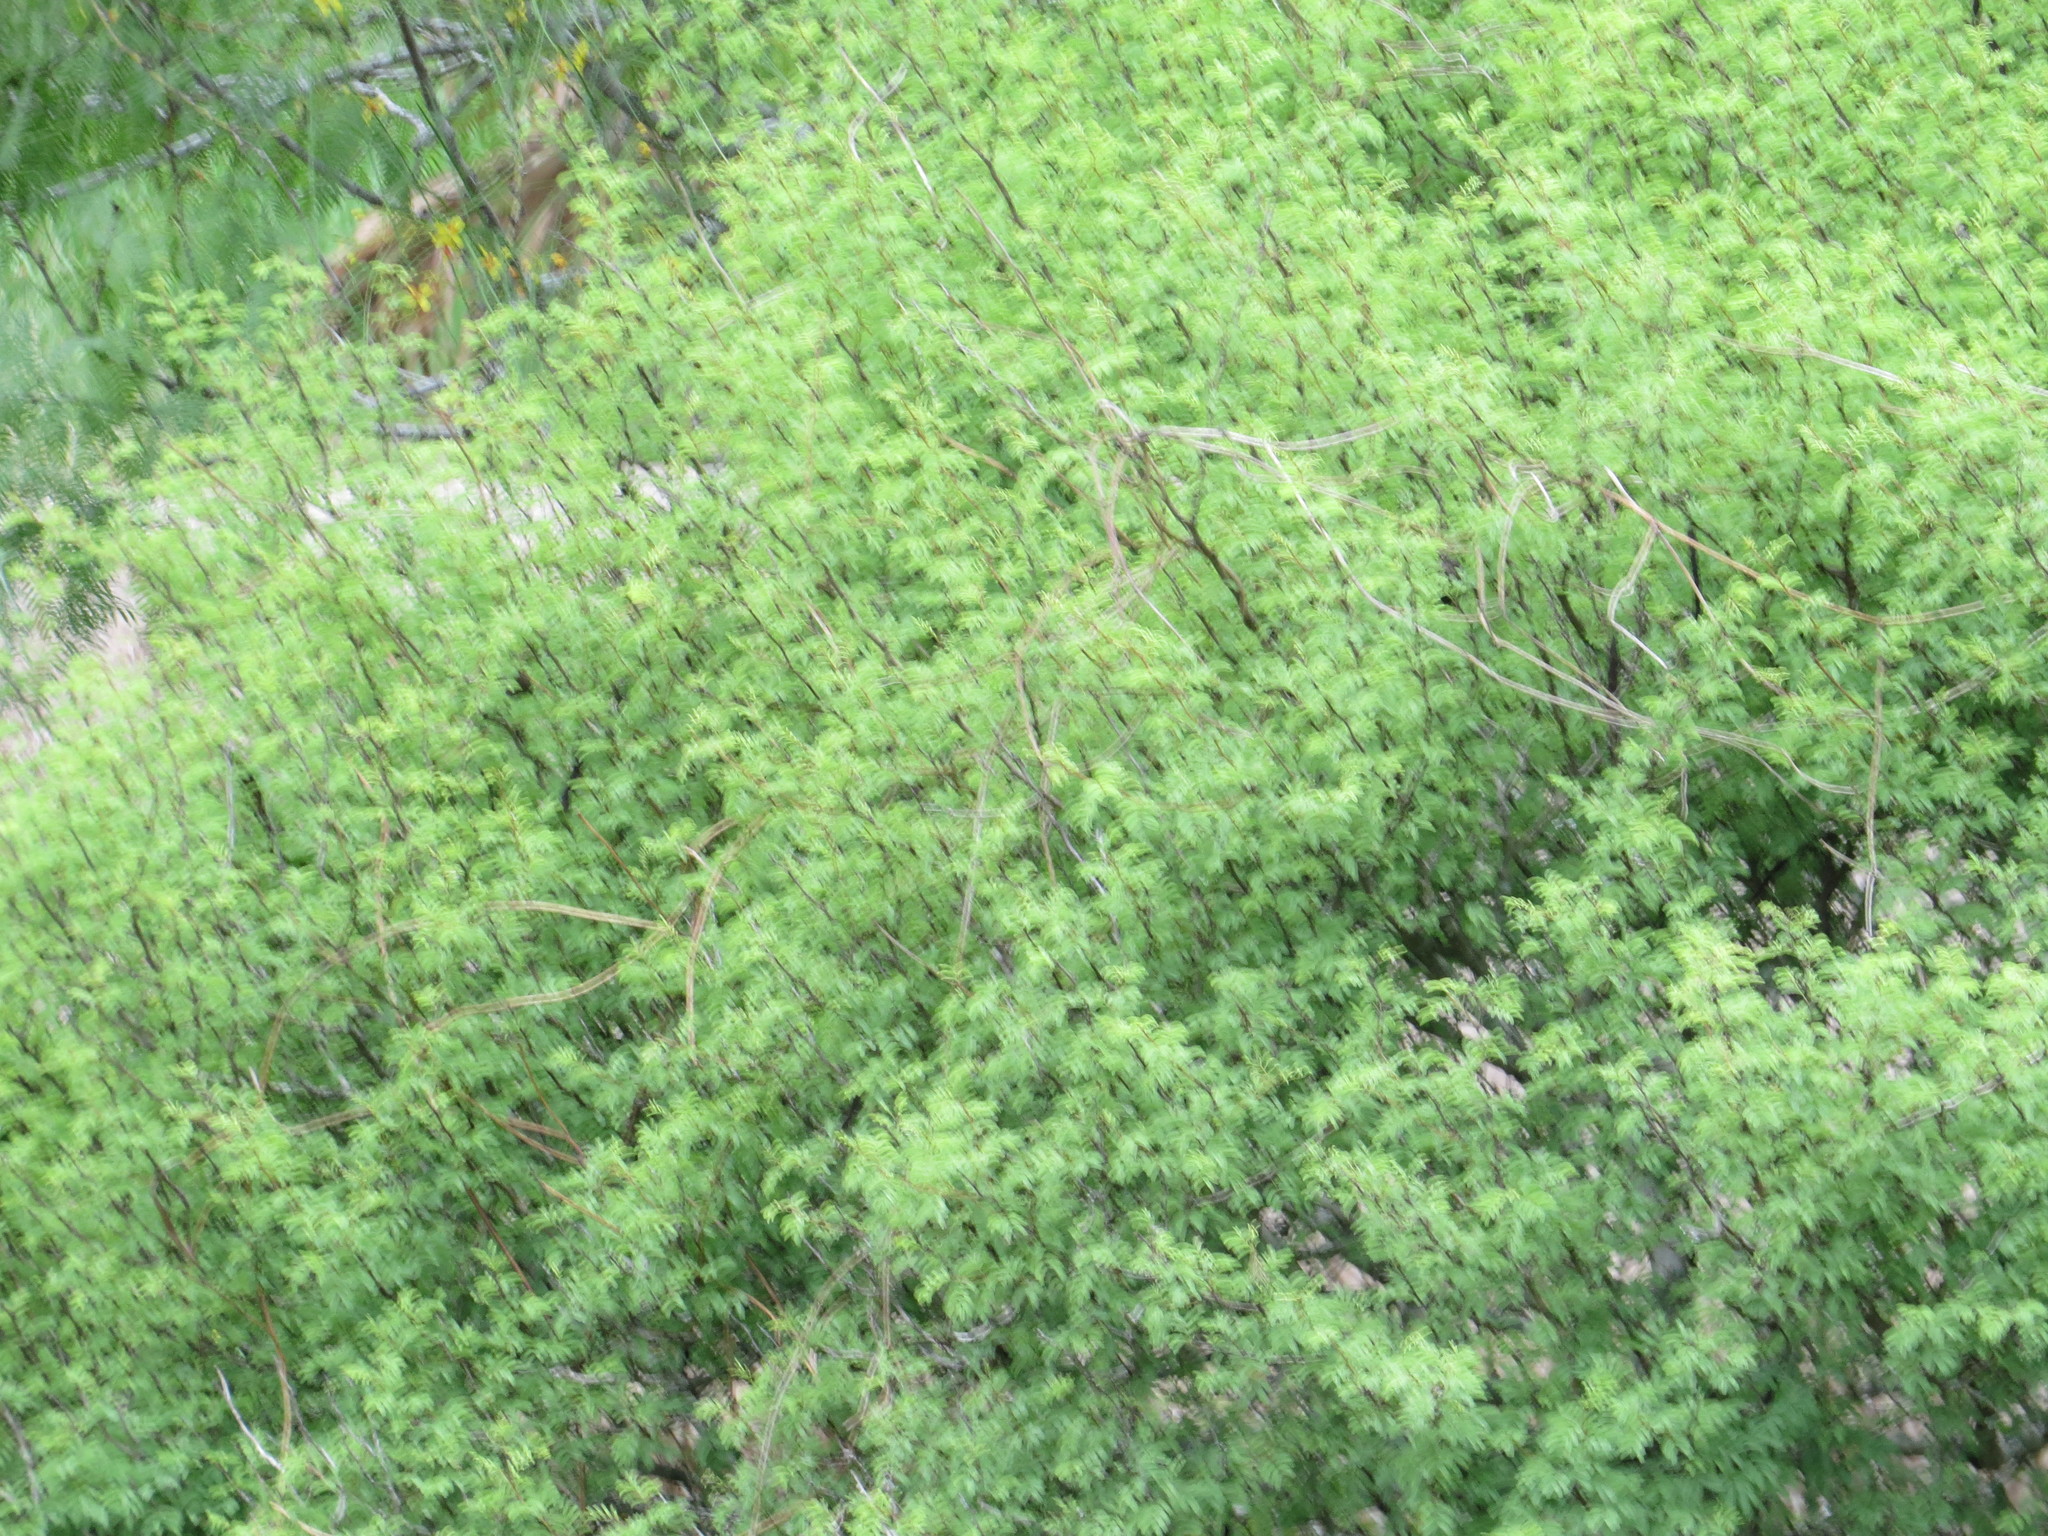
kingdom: Plantae
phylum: Tracheophyta
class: Magnoliopsida
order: Fabales
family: Fabaceae
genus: Vachellia
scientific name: Vachellia schaffneri
